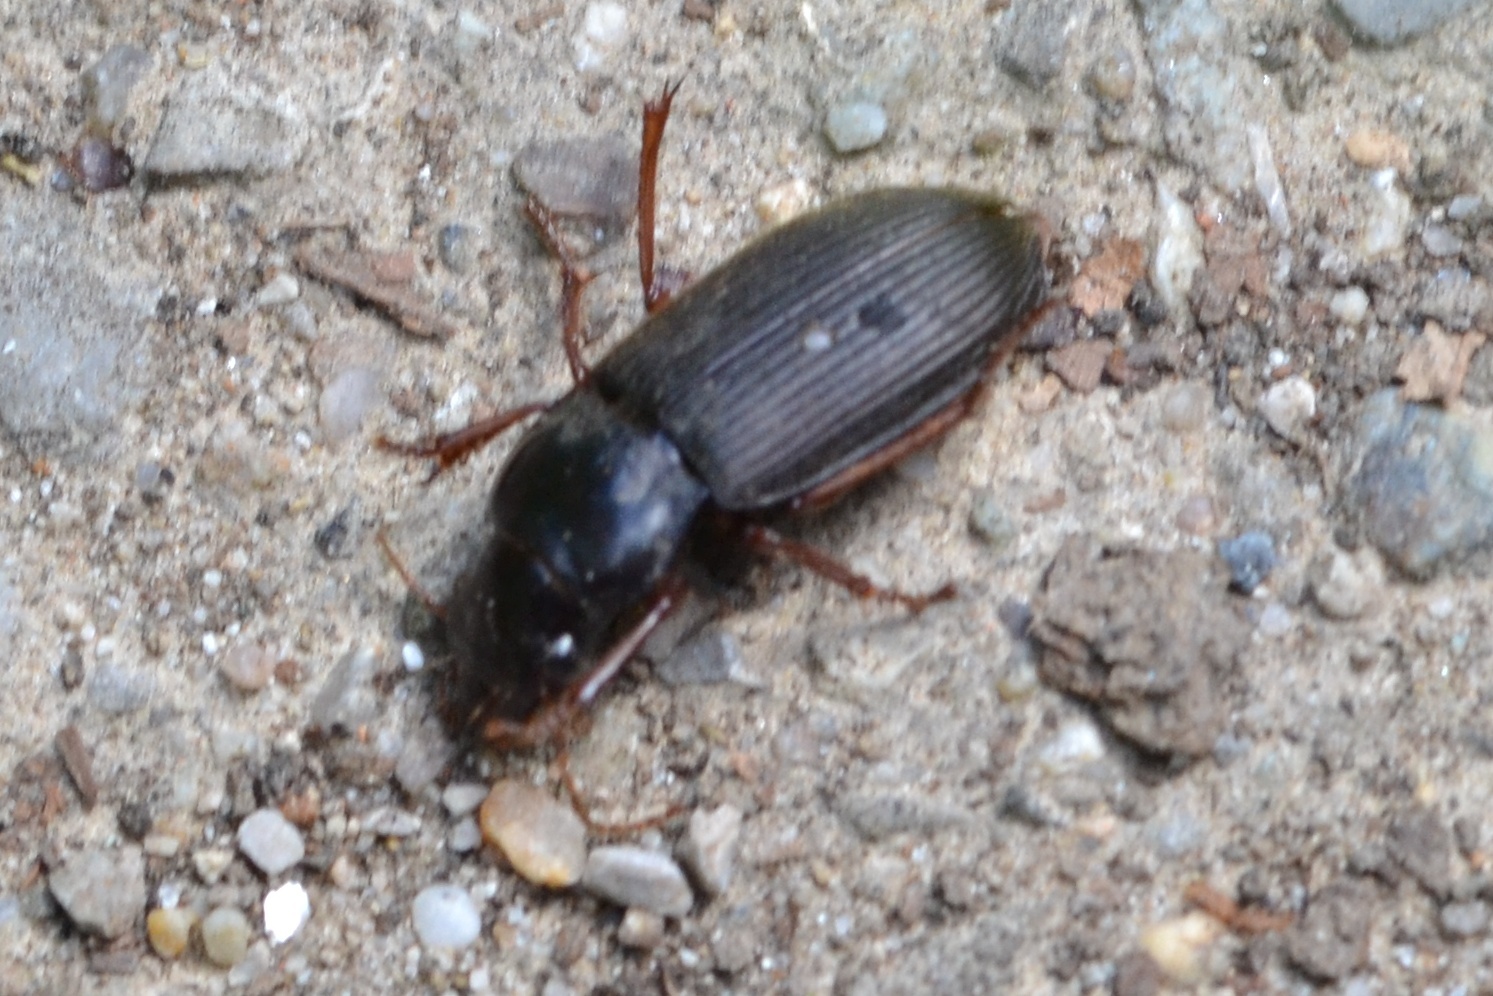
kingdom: Animalia
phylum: Arthropoda
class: Insecta
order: Coleoptera
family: Carabidae
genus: Harpalus
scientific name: Harpalus rufipes
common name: Strawberry harp ground beetle
